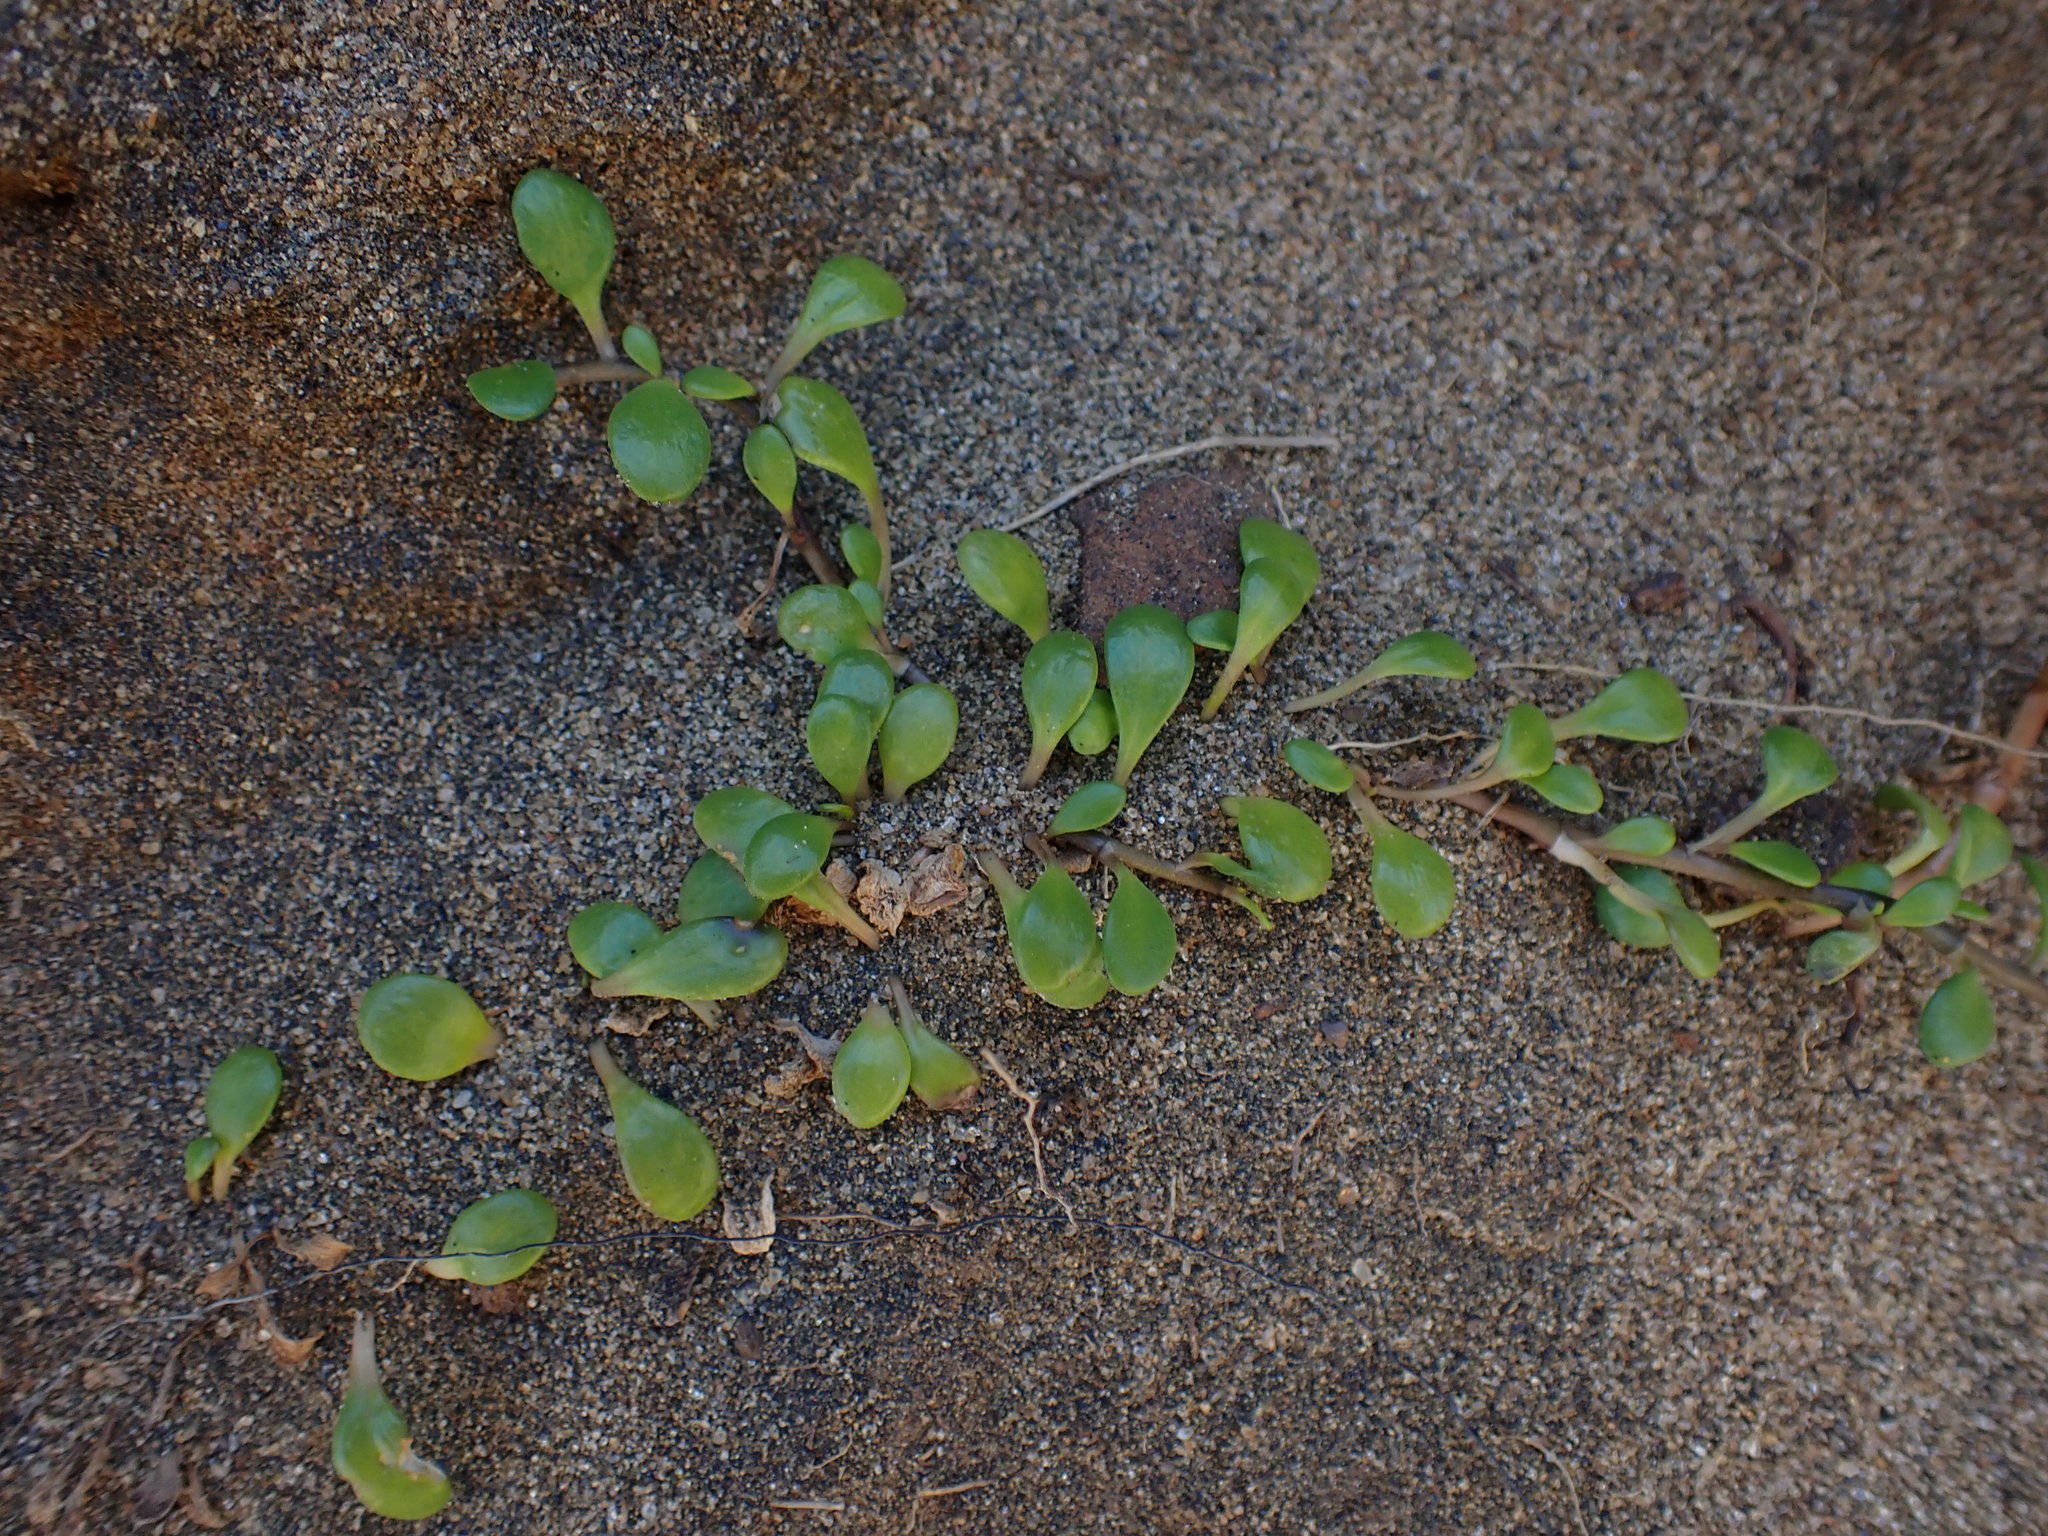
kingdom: Plantae
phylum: Tracheophyta
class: Magnoliopsida
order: Asterales
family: Goodeniaceae
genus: Goodenia
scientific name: Goodenia radicans
